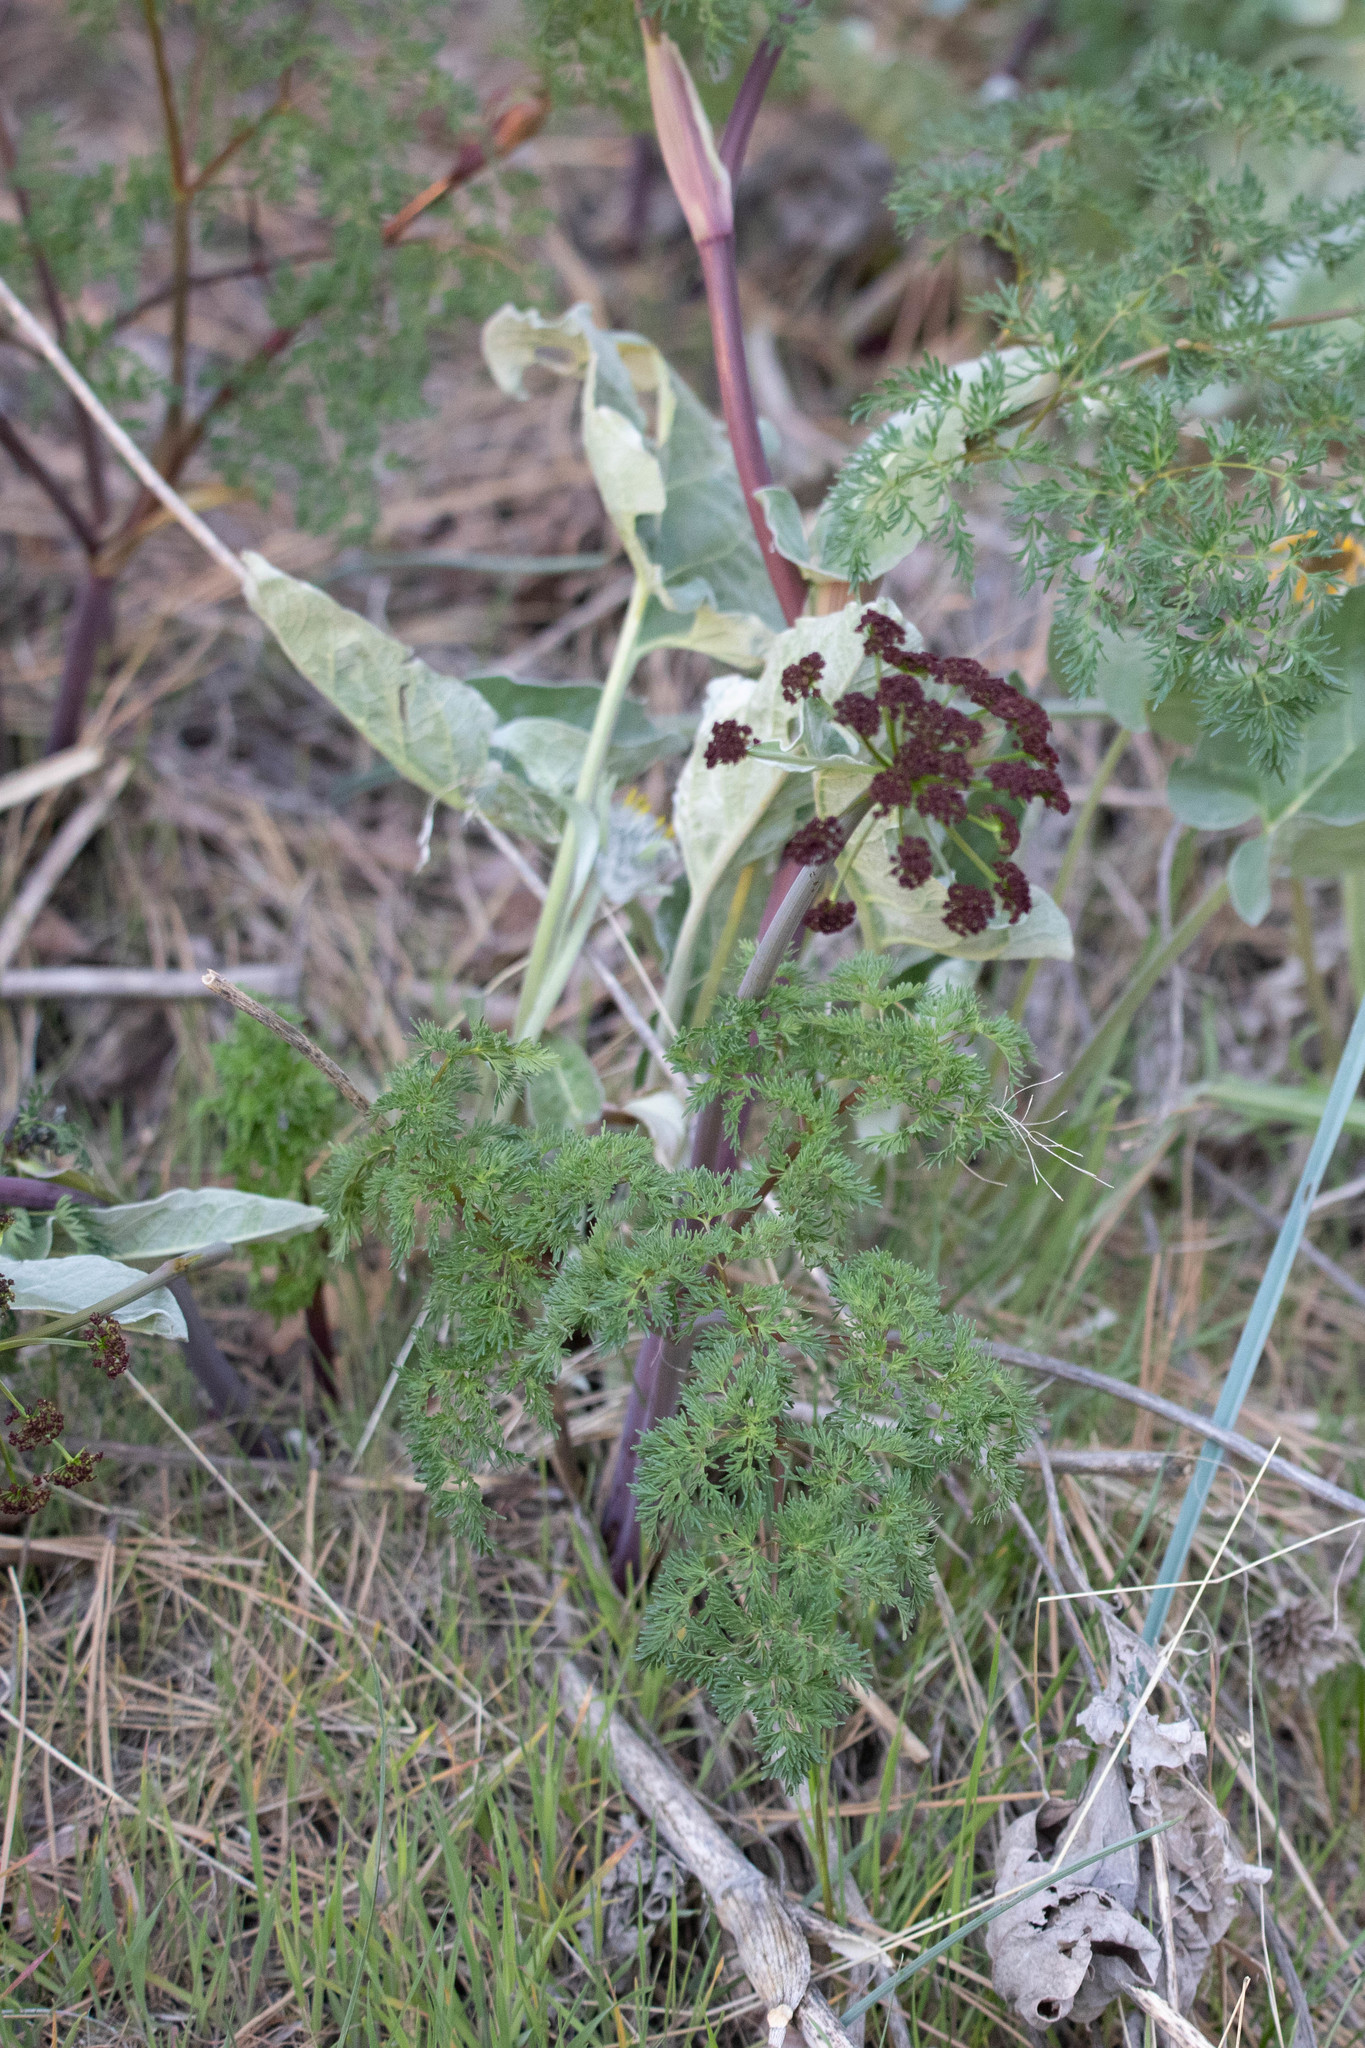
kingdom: Plantae
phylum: Tracheophyta
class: Magnoliopsida
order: Apiales
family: Apiaceae
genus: Lomatium
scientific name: Lomatium multifidum
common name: Carrot-leaved biscuitroot
